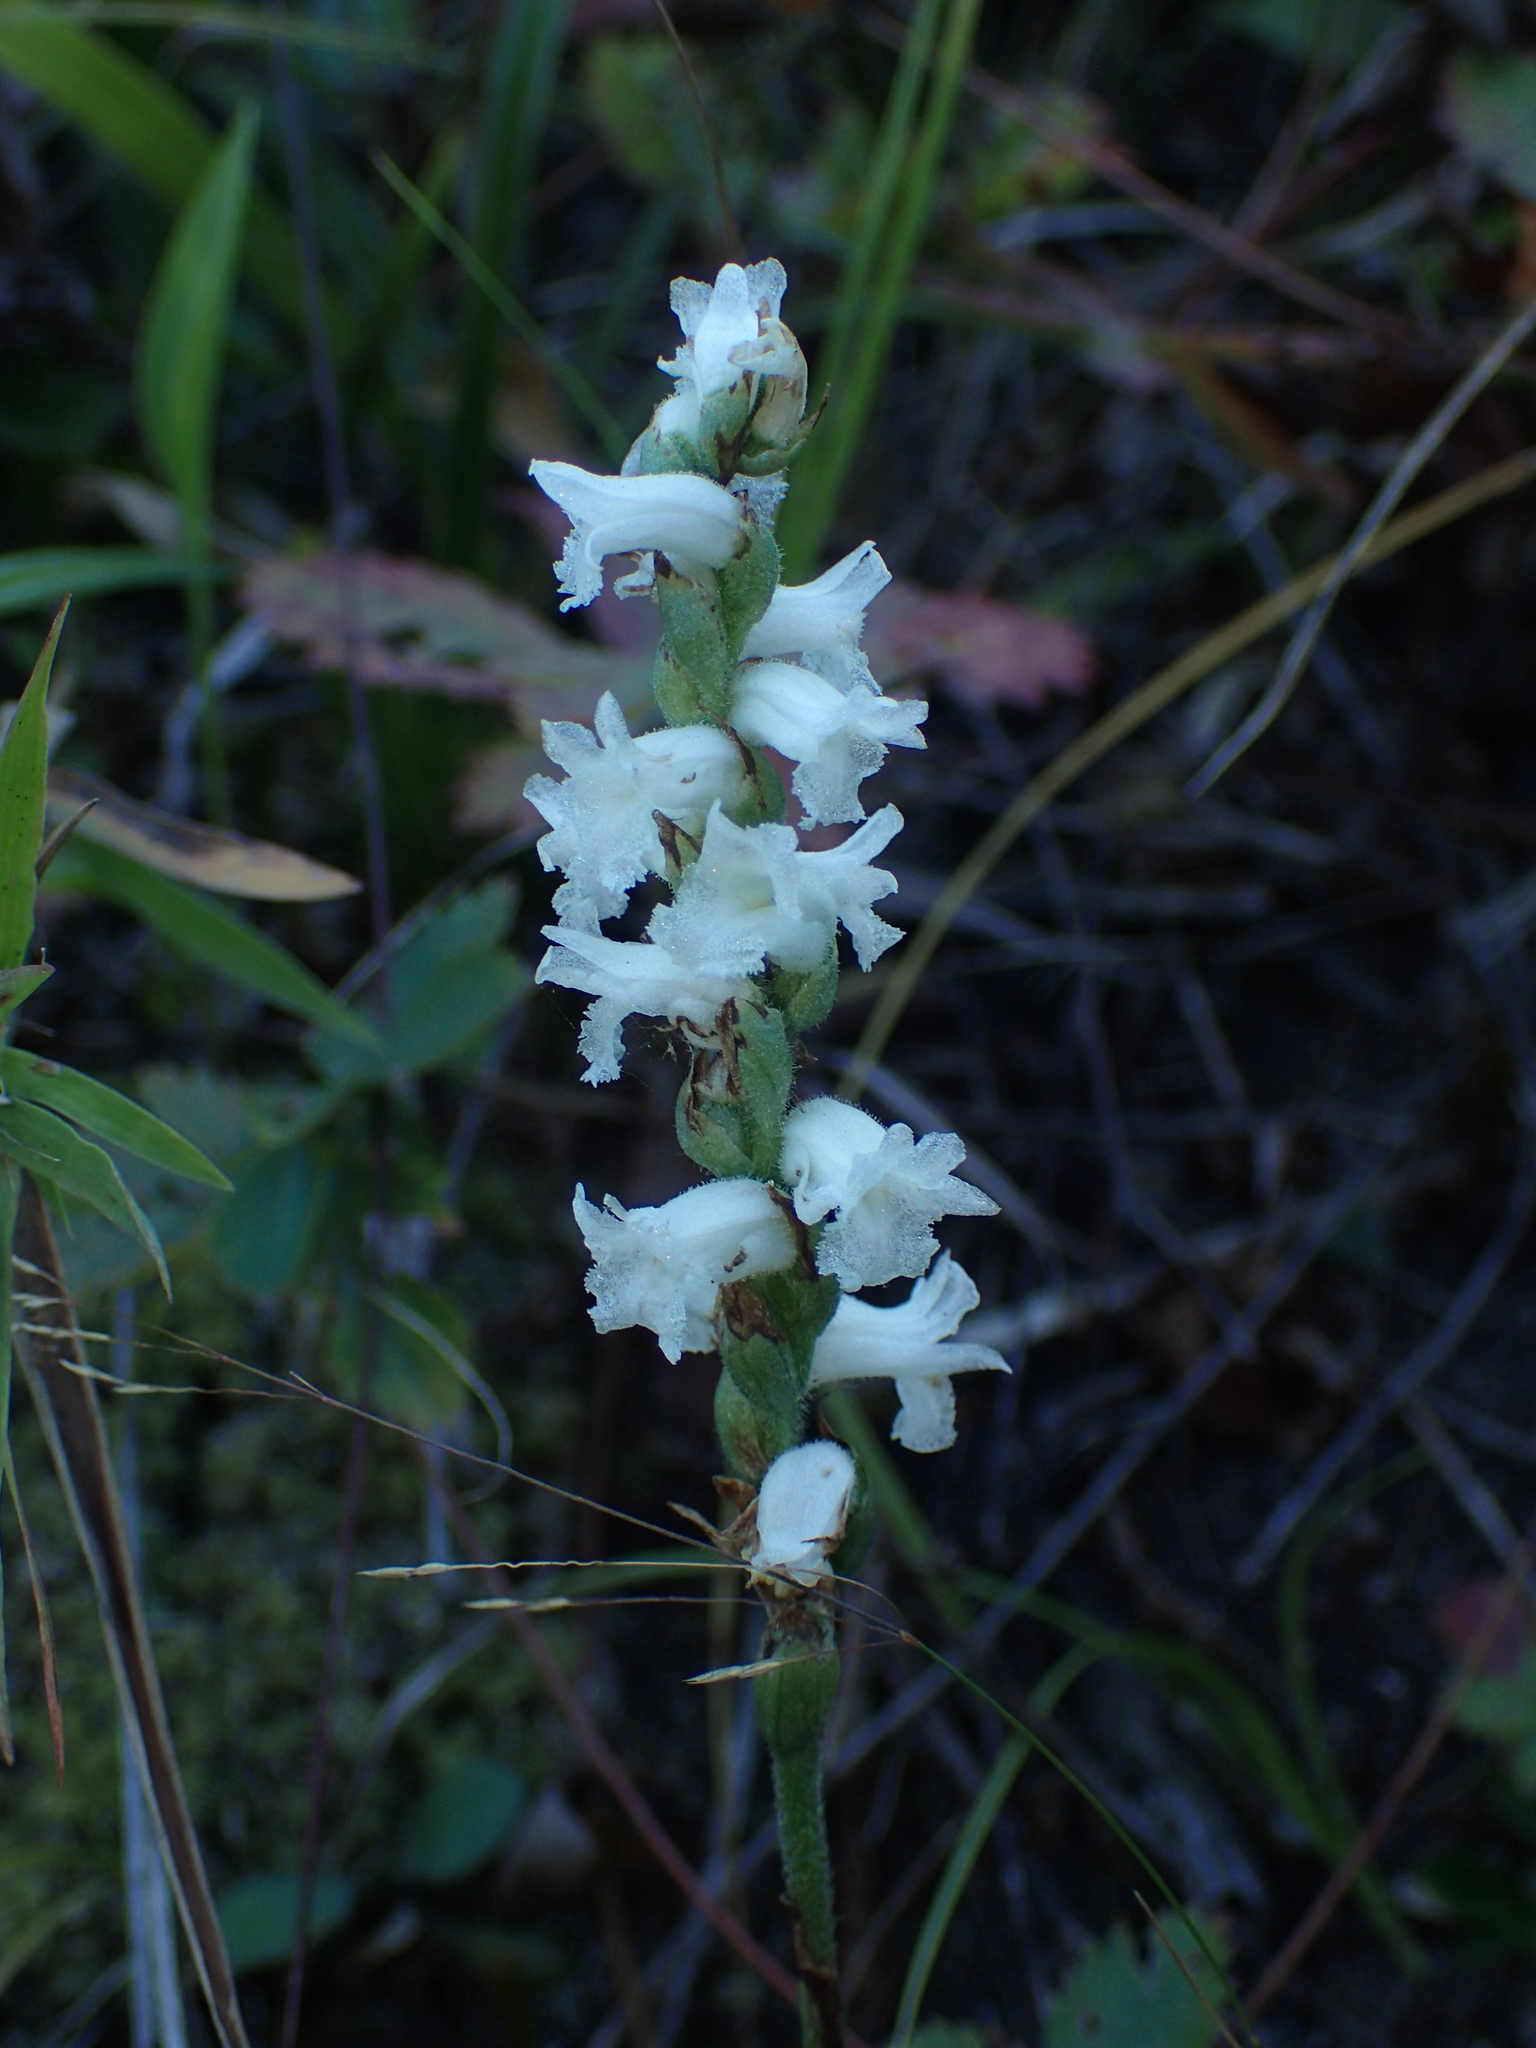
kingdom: Plantae
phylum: Tracheophyta
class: Liliopsida
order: Asparagales
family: Orchidaceae
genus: Spiranthes
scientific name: Spiranthes arcisepala
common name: Appalachian ladies'-tresses
